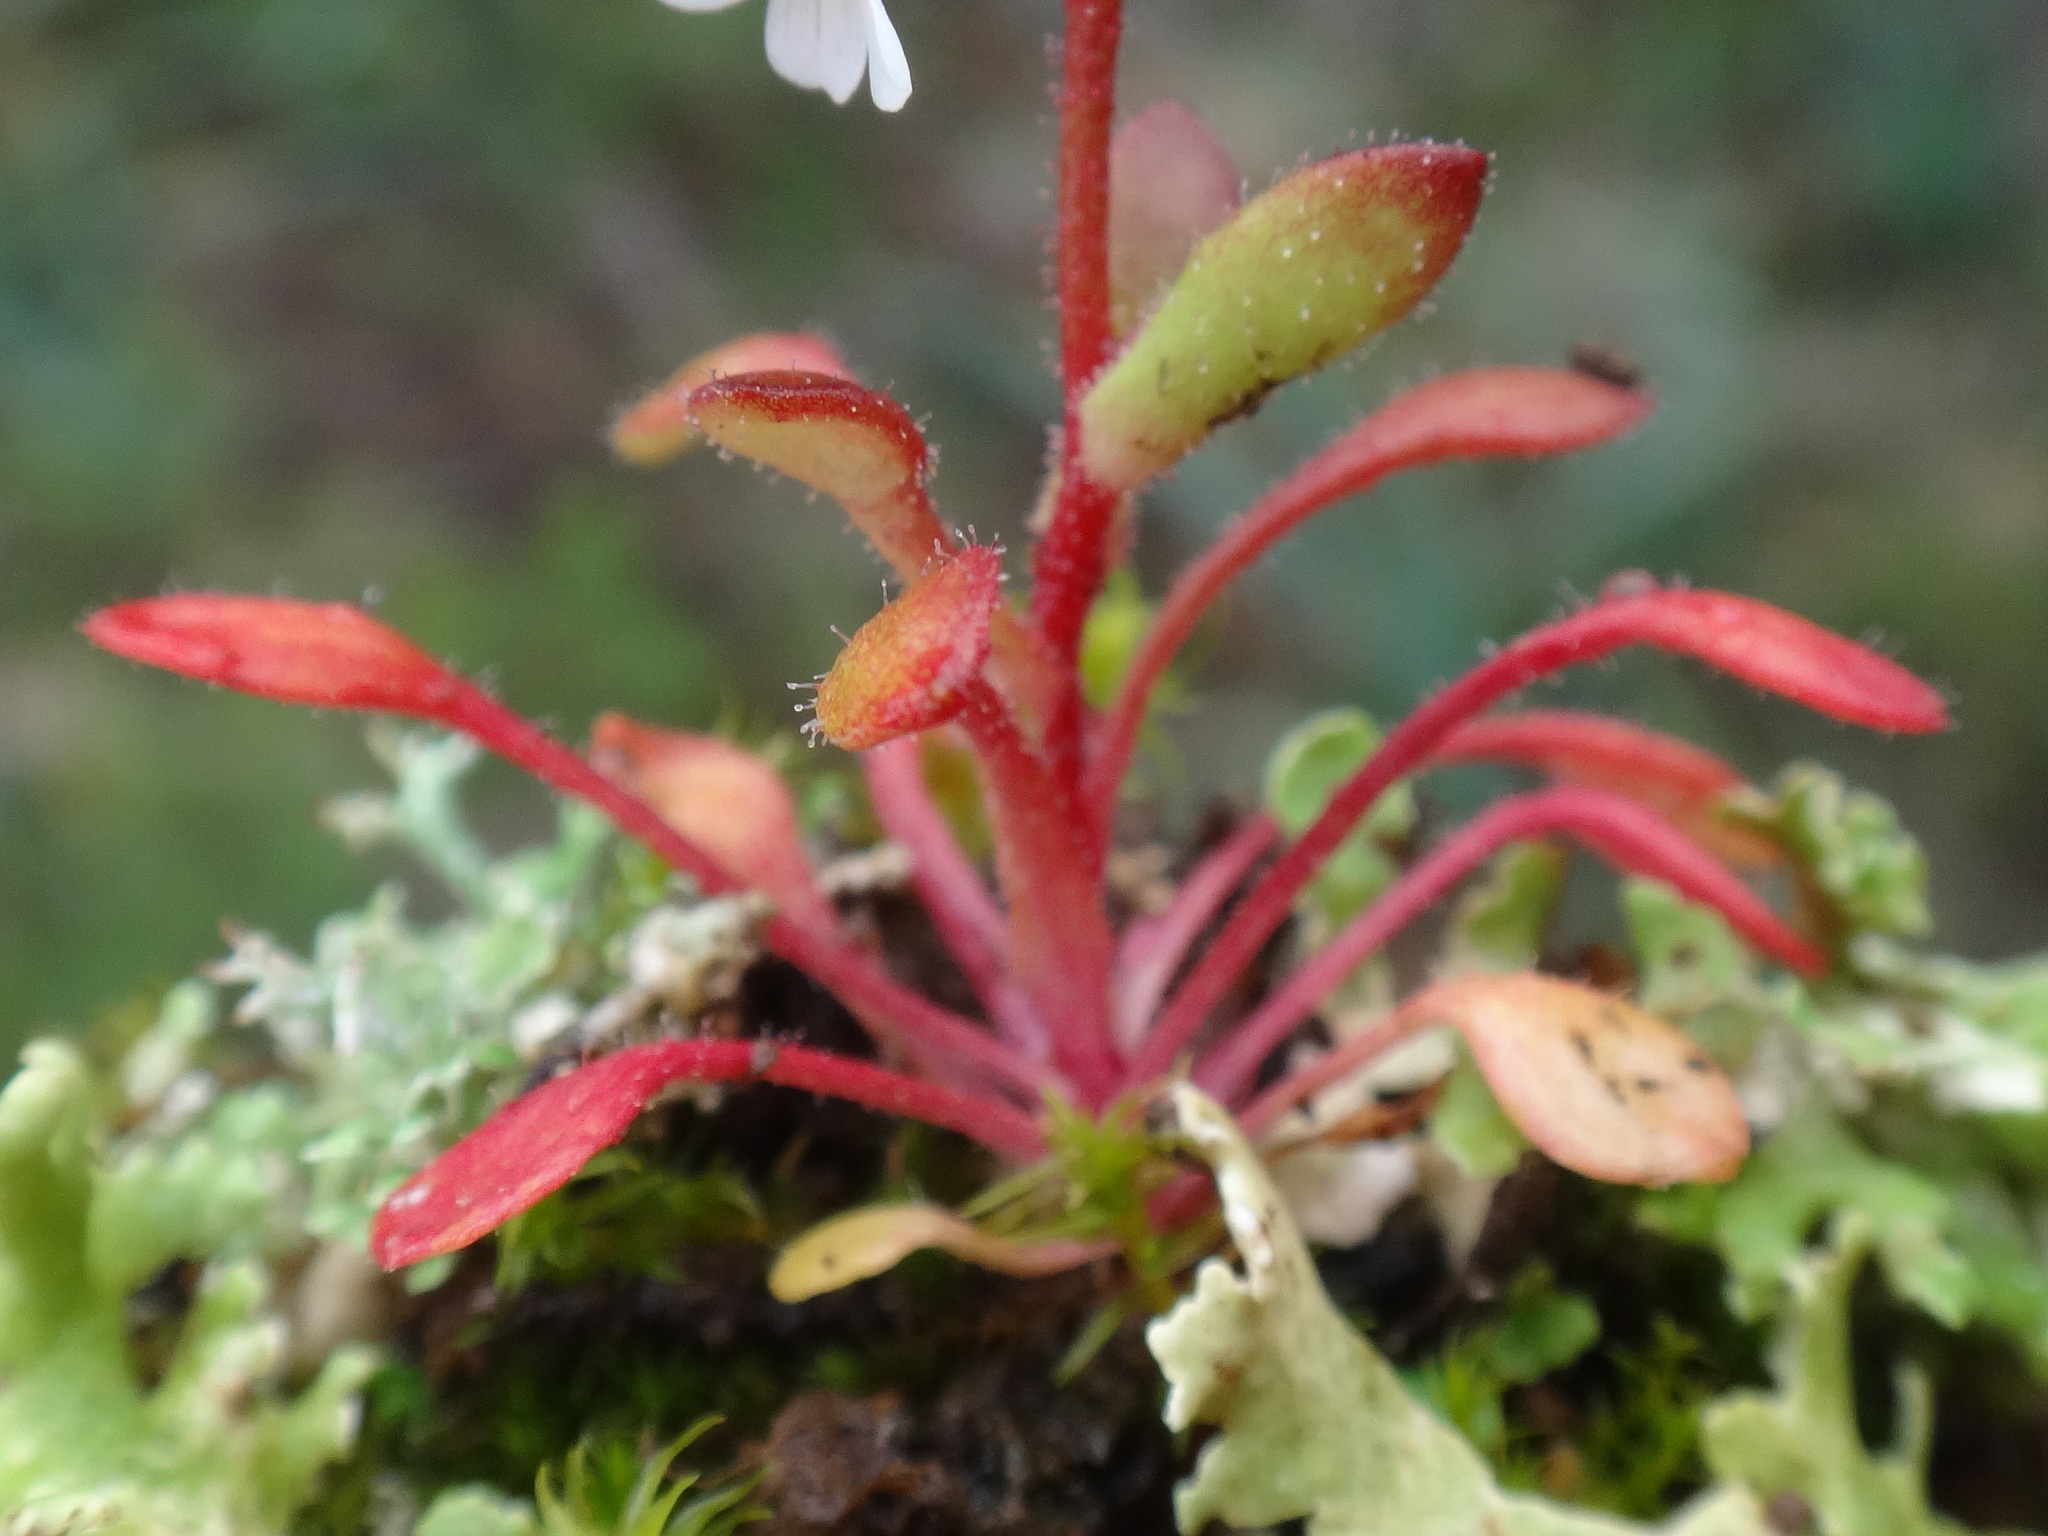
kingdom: Plantae
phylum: Tracheophyta
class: Magnoliopsida
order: Saxifragales
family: Saxifragaceae
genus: Saxifraga
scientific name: Saxifraga tridactylites
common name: Rue-leaved saxifrage
